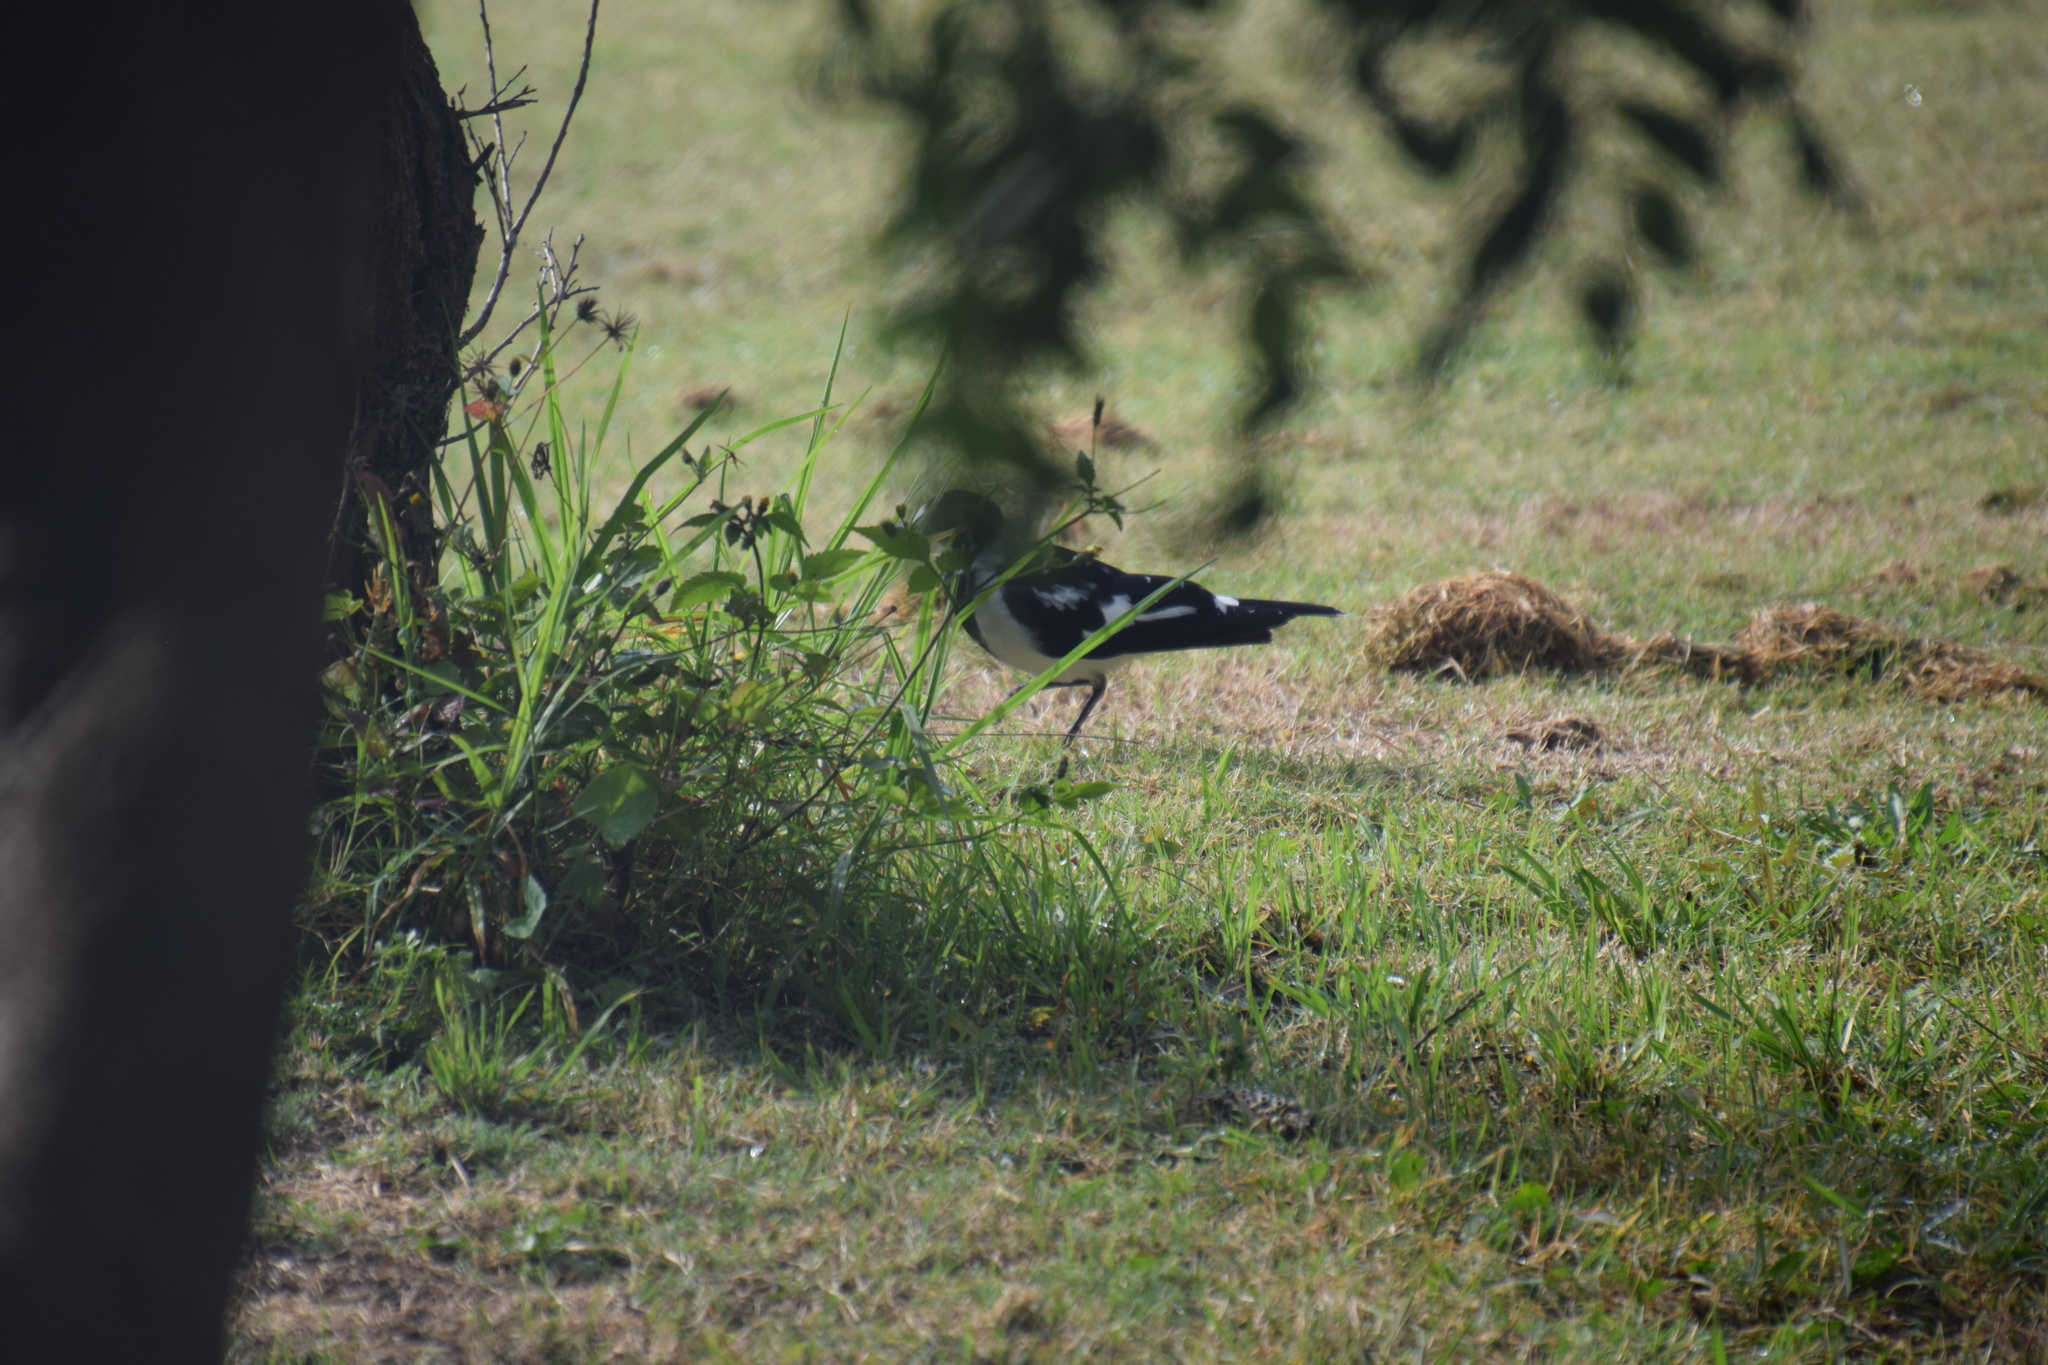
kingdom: Animalia
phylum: Chordata
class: Aves
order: Passeriformes
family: Monarchidae
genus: Grallina
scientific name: Grallina cyanoleuca
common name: Magpie-lark
